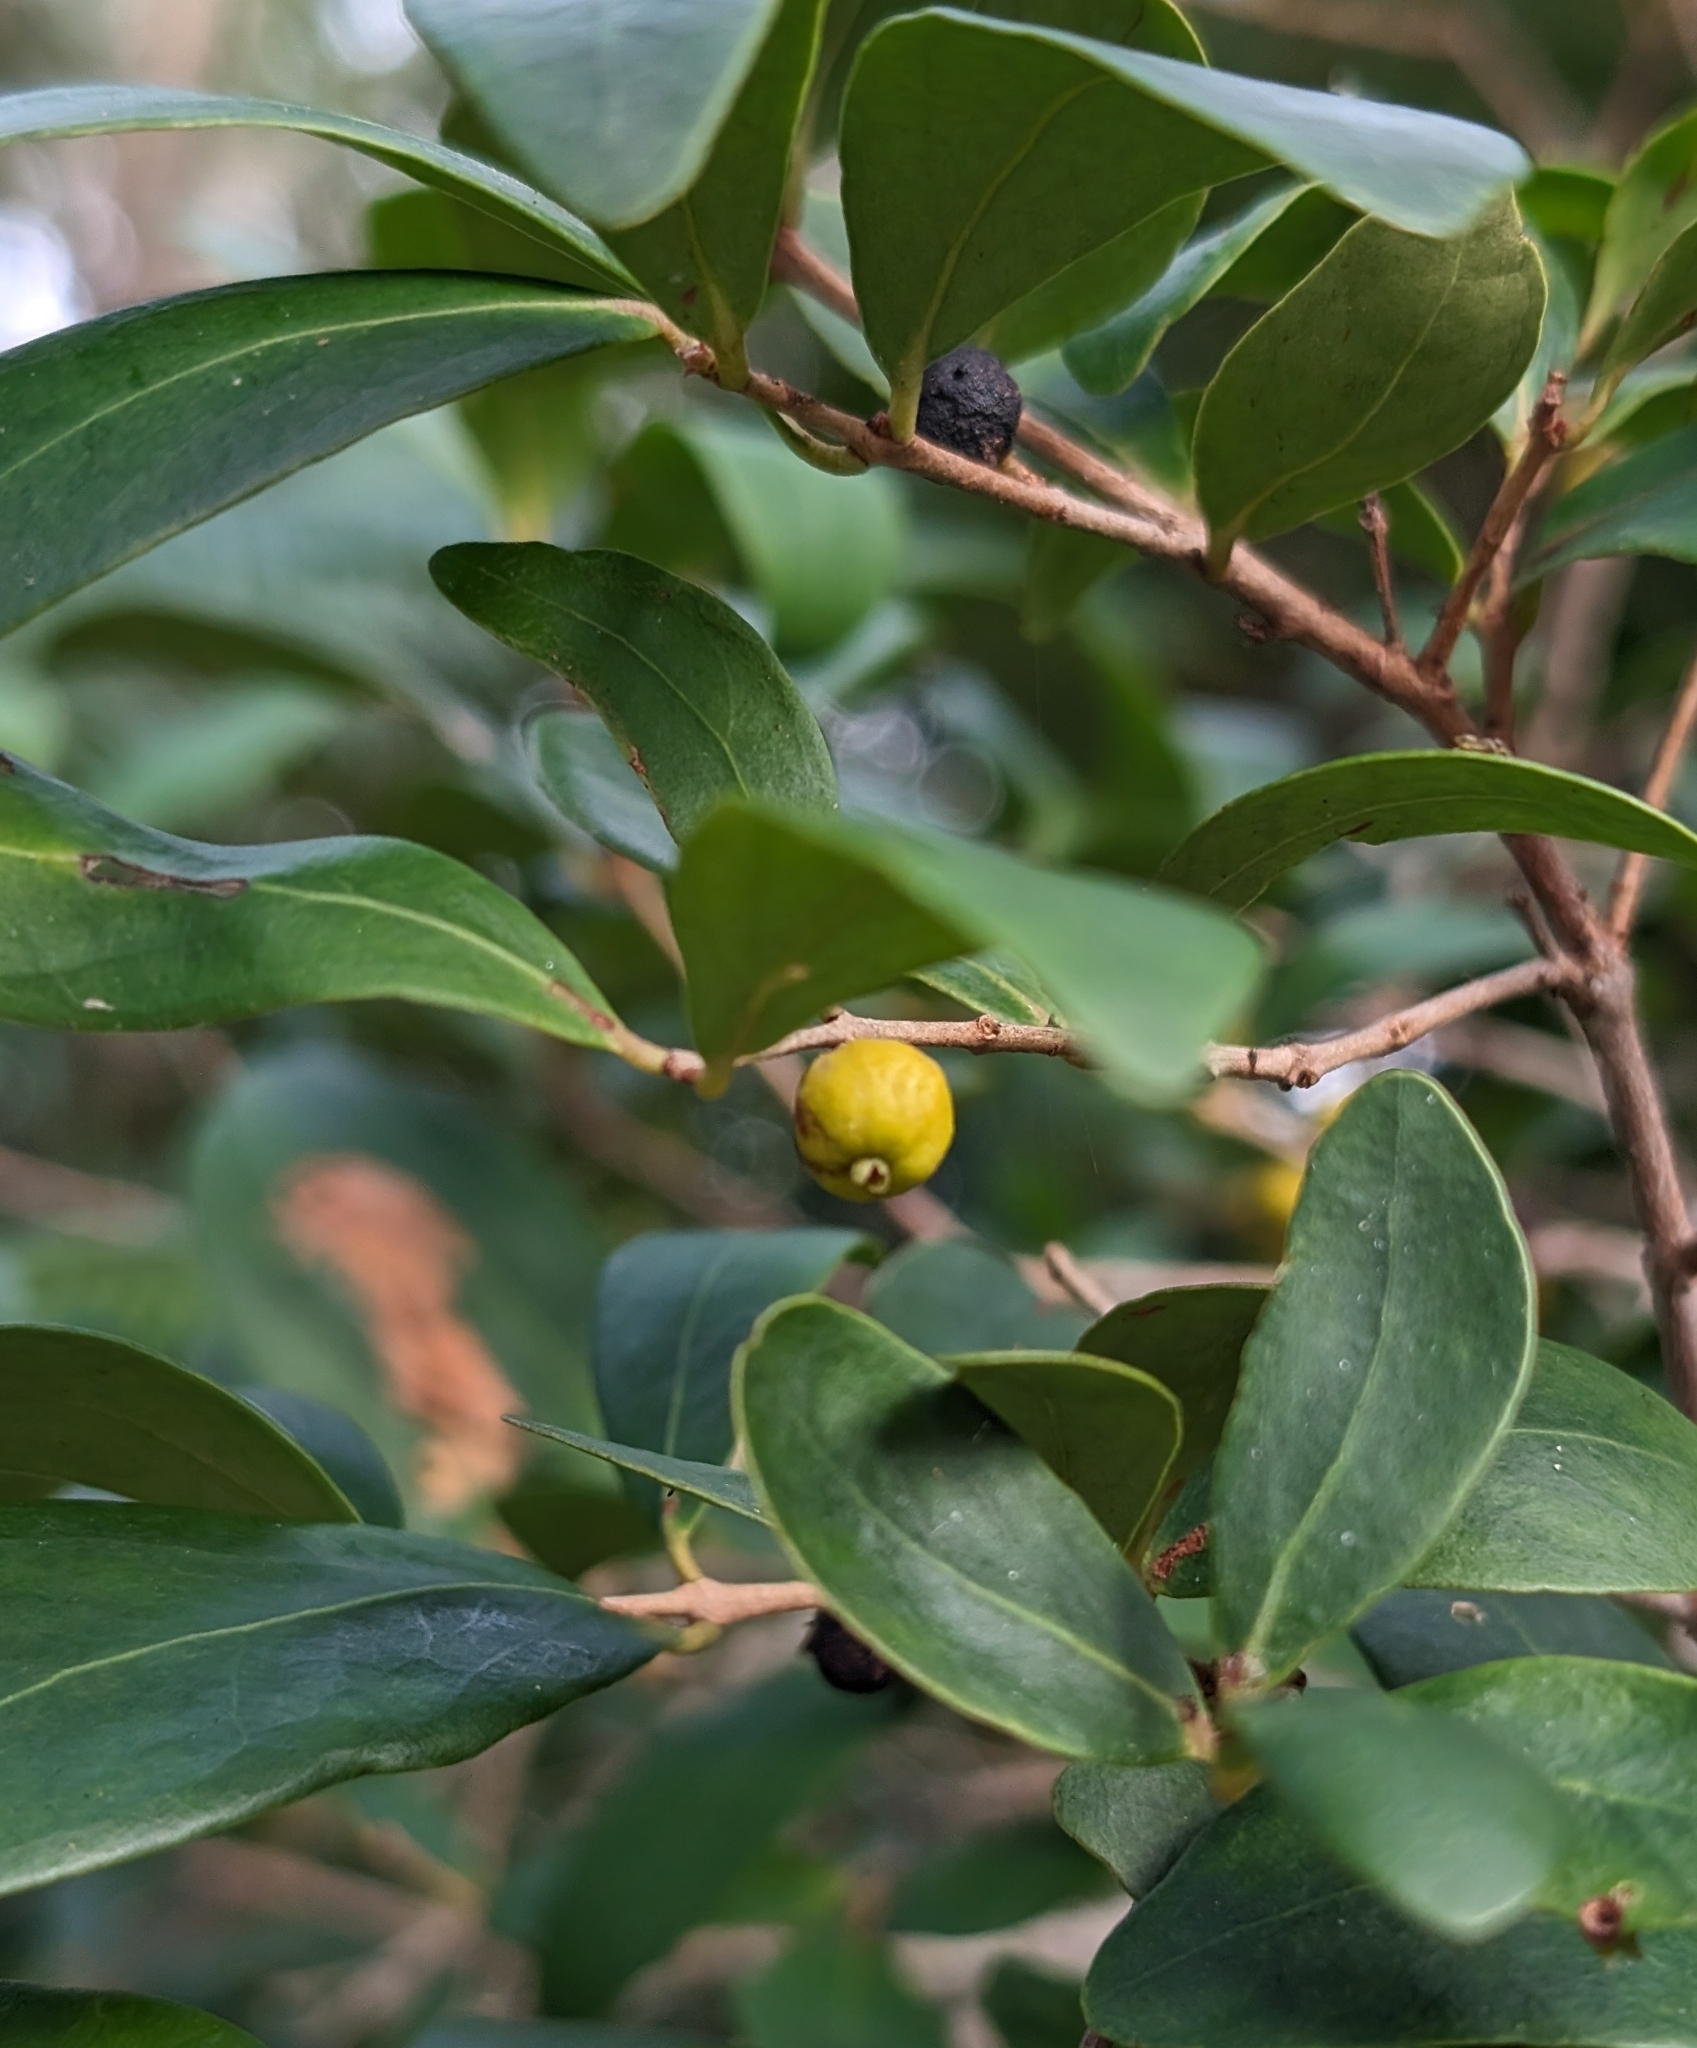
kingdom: Plantae
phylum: Tracheophyta
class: Magnoliopsida
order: Myrtales
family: Myrtaceae
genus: Eugenia
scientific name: Eugenia foetida
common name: White wattling
